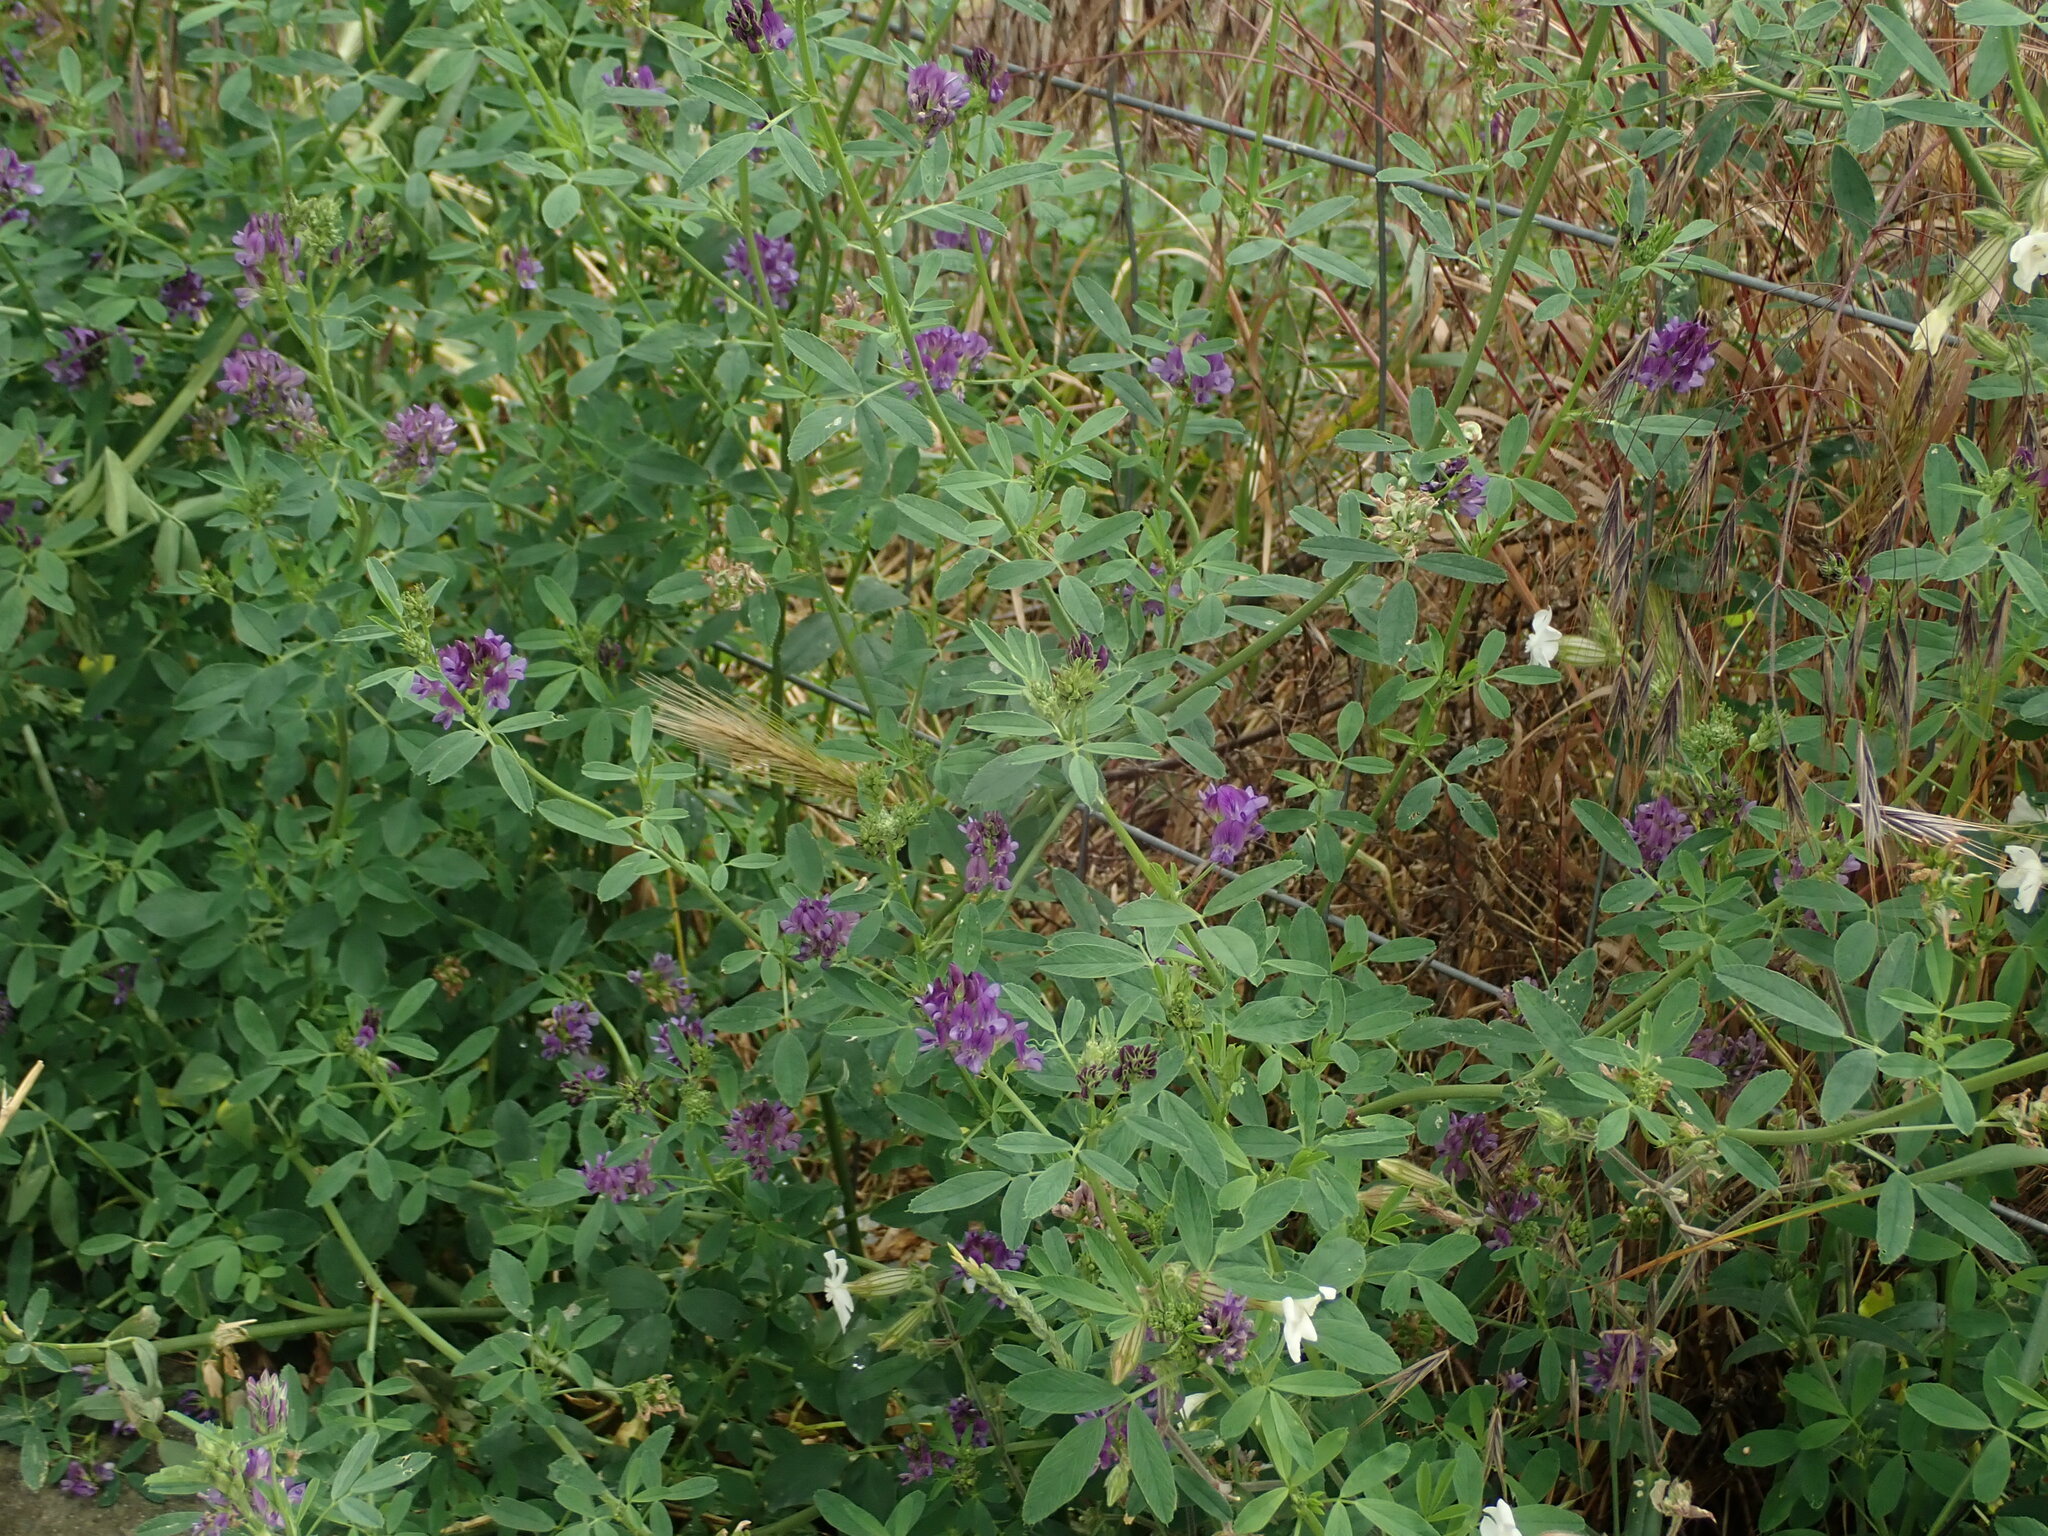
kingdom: Plantae
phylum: Tracheophyta
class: Magnoliopsida
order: Fabales
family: Fabaceae
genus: Medicago
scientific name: Medicago sativa
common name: Alfalfa
